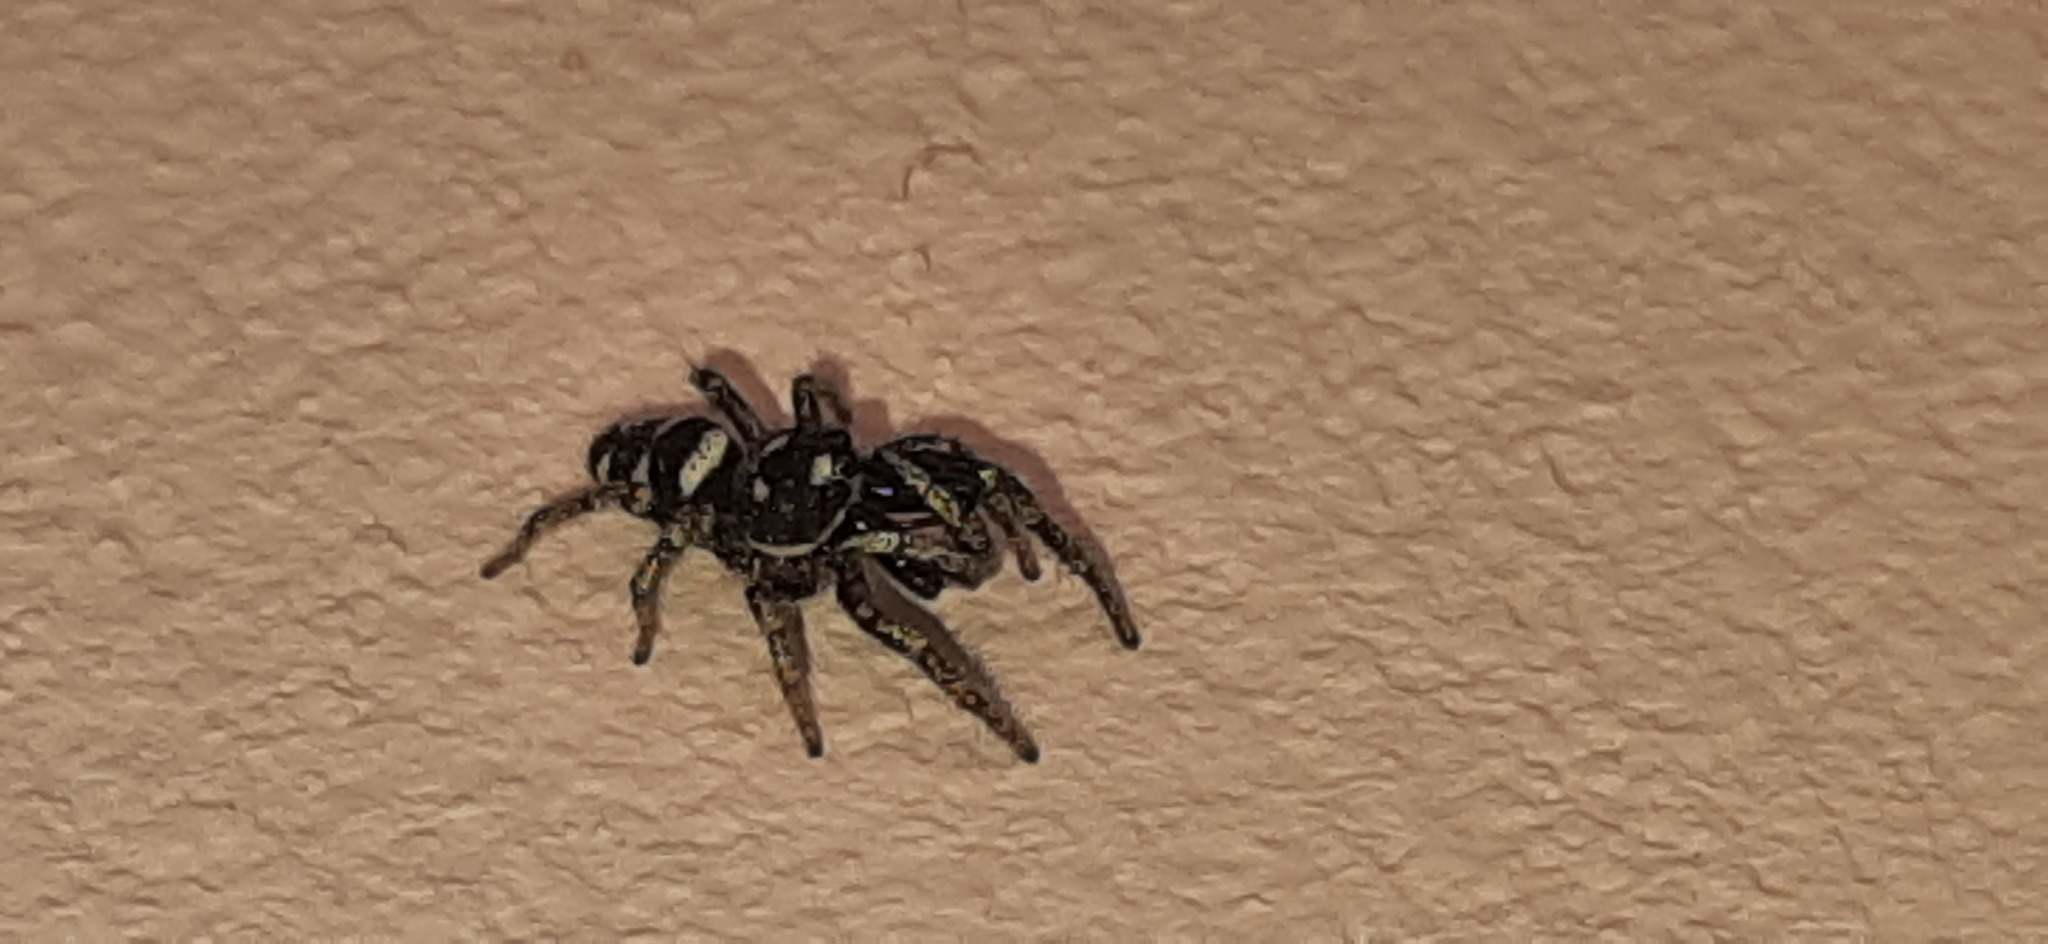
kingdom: Animalia
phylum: Arthropoda
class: Arachnida
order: Araneae
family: Salticidae
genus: Salticus
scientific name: Salticus scenicus
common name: Zebra jumper
